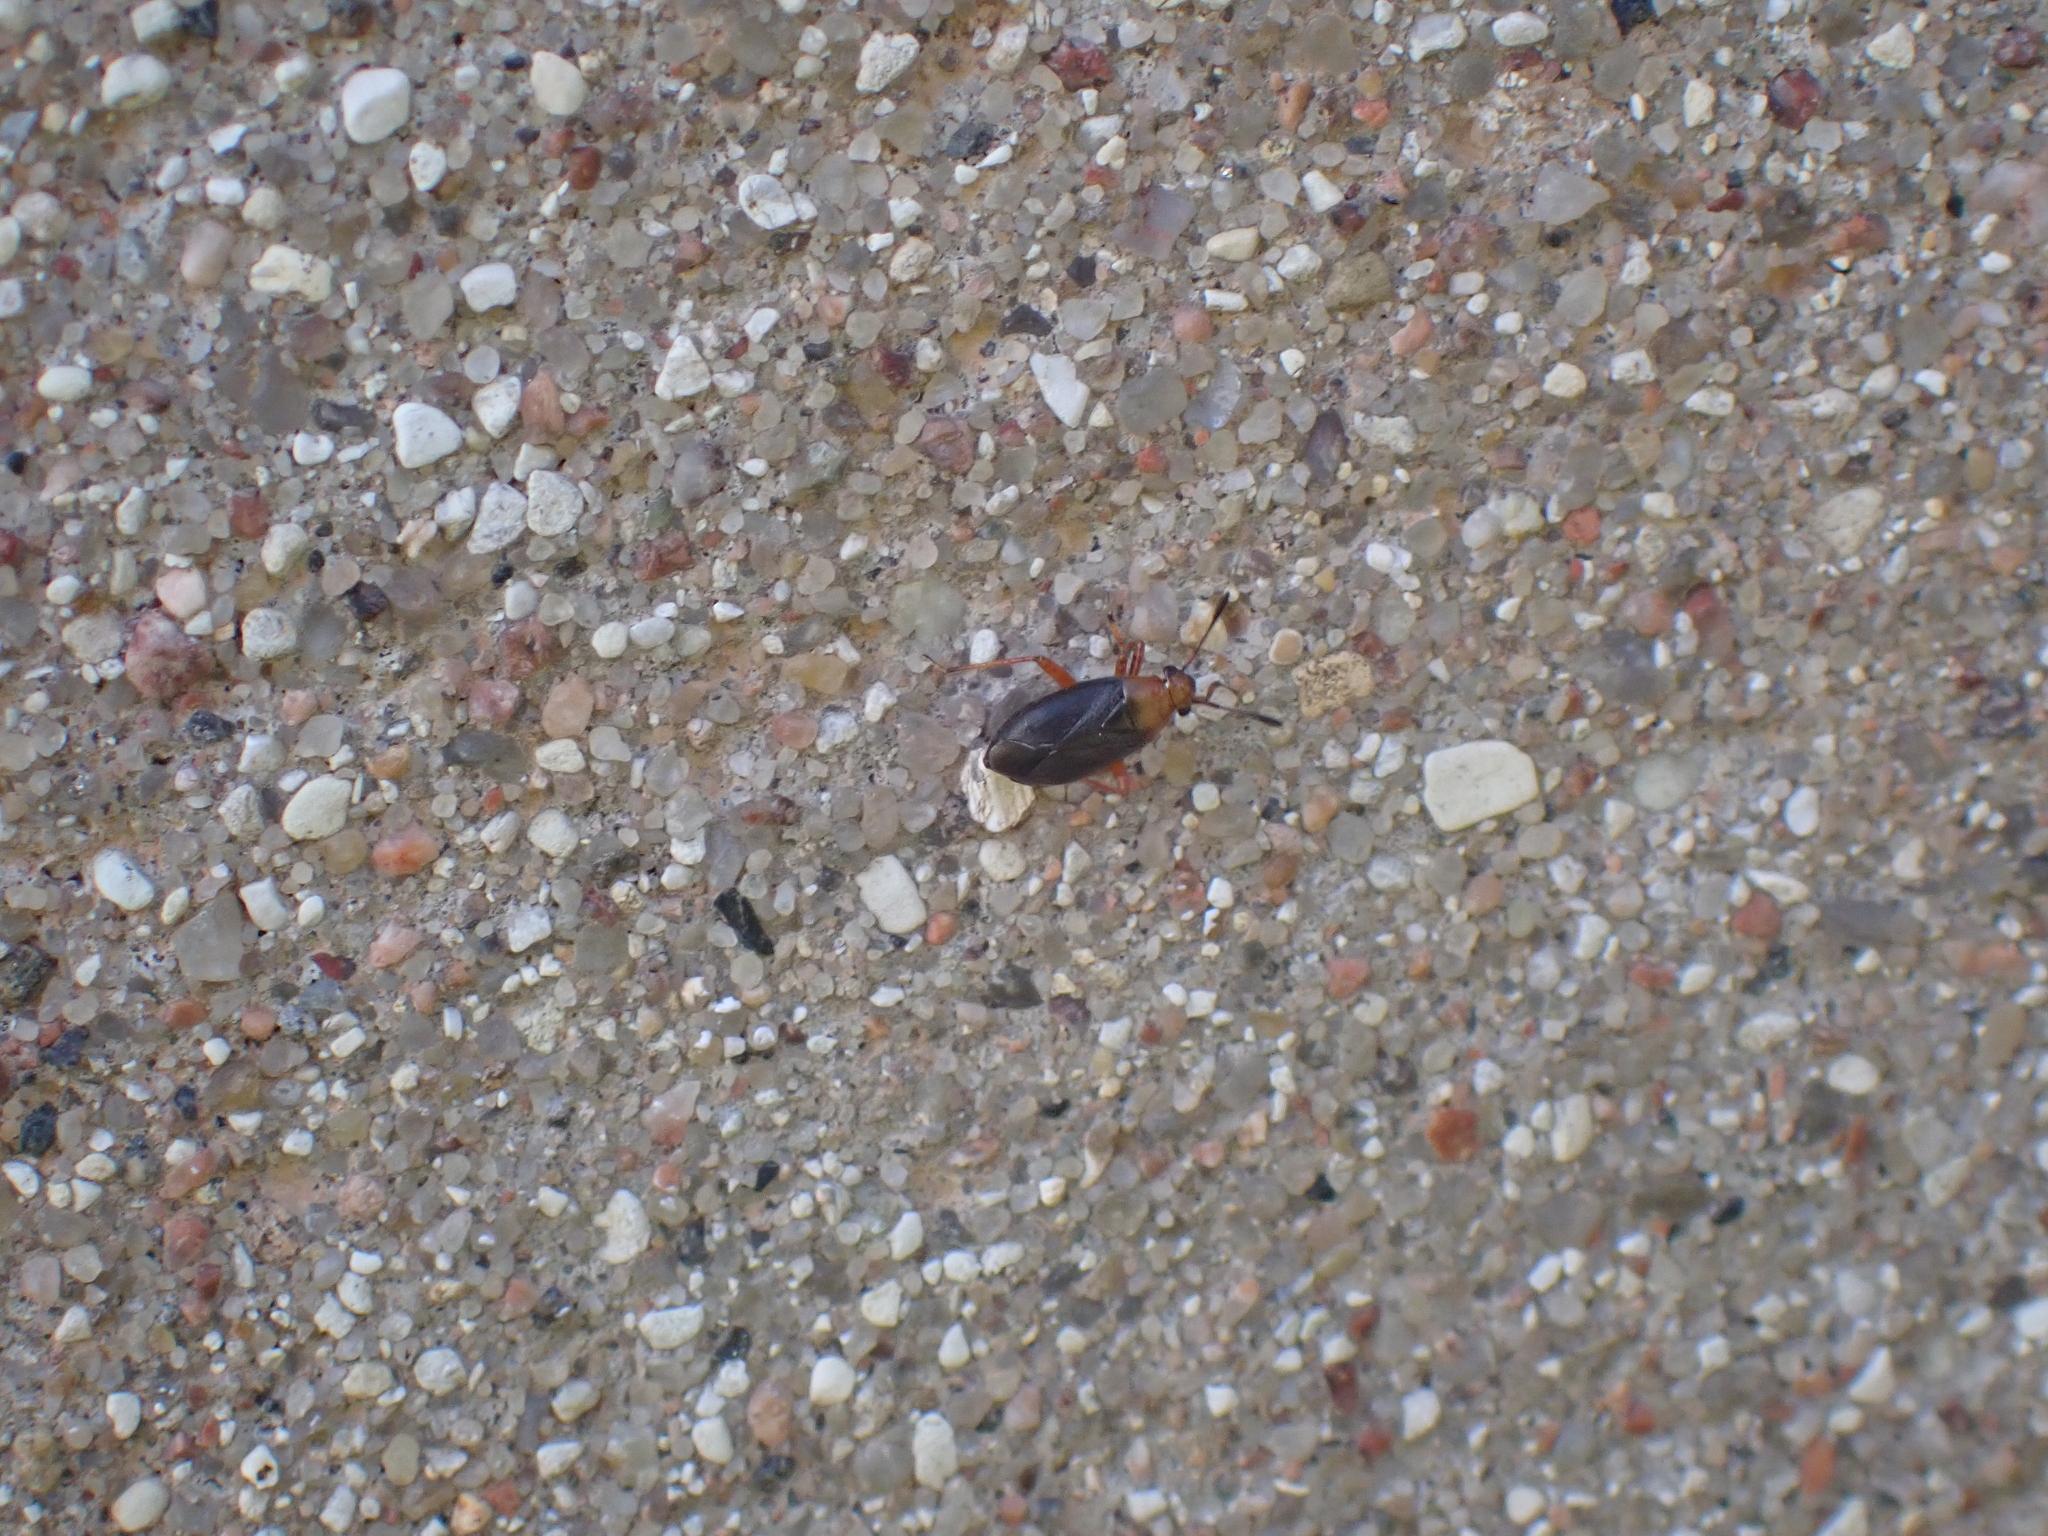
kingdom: Animalia
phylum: Arthropoda
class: Insecta
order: Hemiptera
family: Miridae
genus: Capsus
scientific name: Capsus ater
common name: Black plant bug
